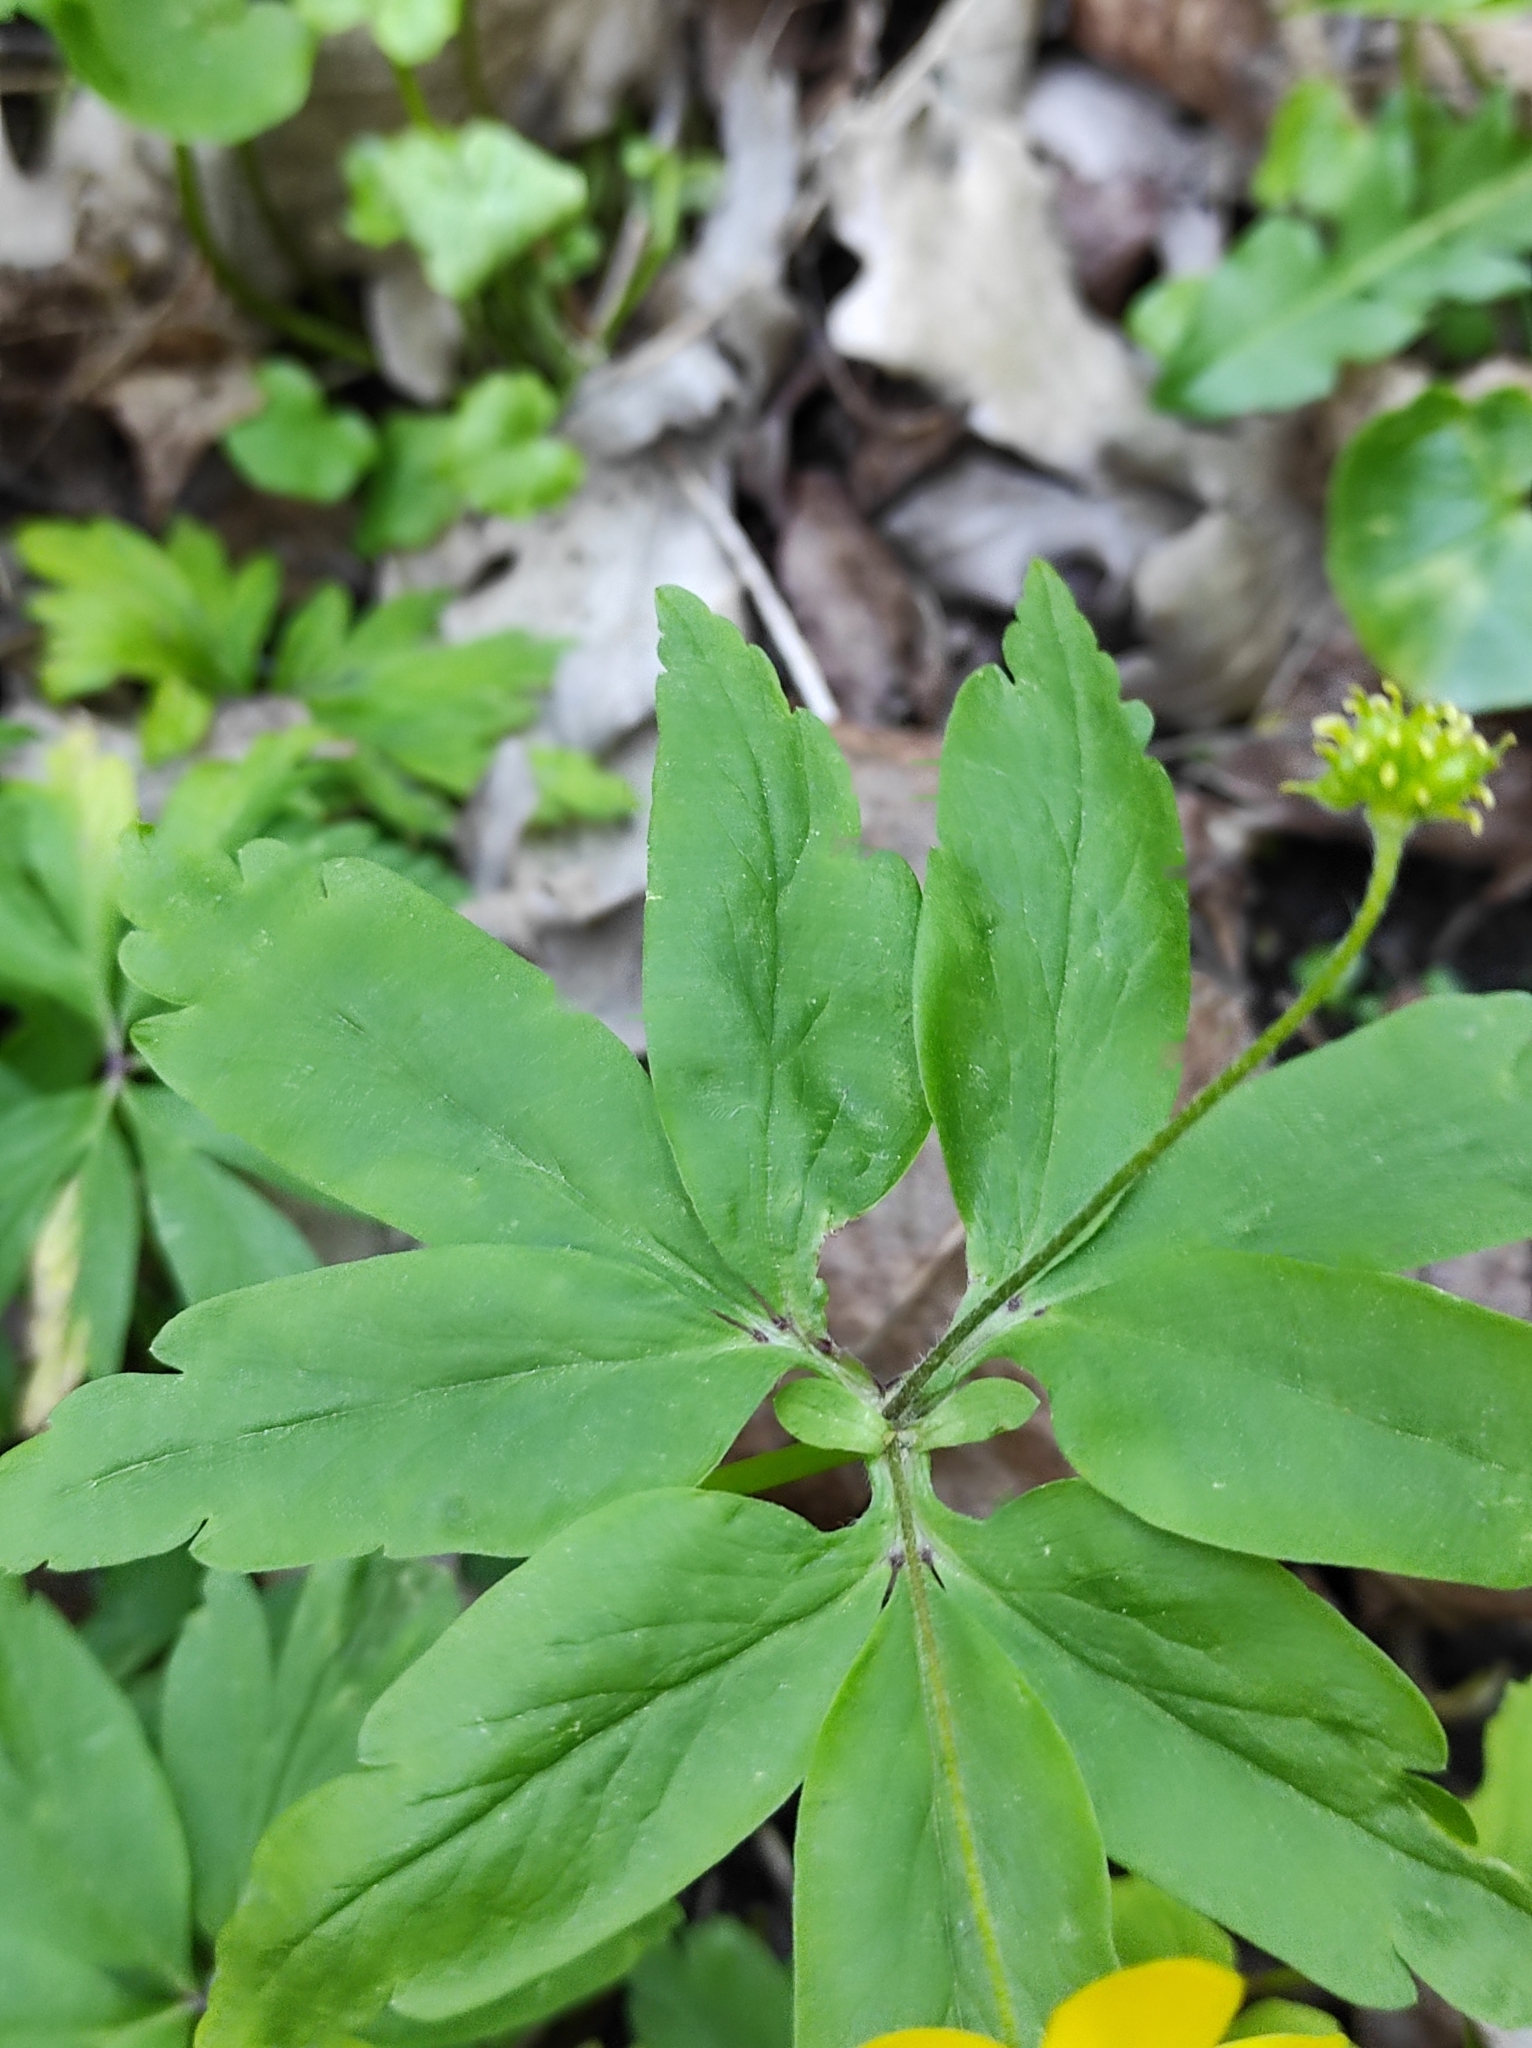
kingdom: Plantae
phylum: Tracheophyta
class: Magnoliopsida
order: Ranunculales
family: Ranunculaceae
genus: Anemone
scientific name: Anemone ranunculoides
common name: Yellow anemone
